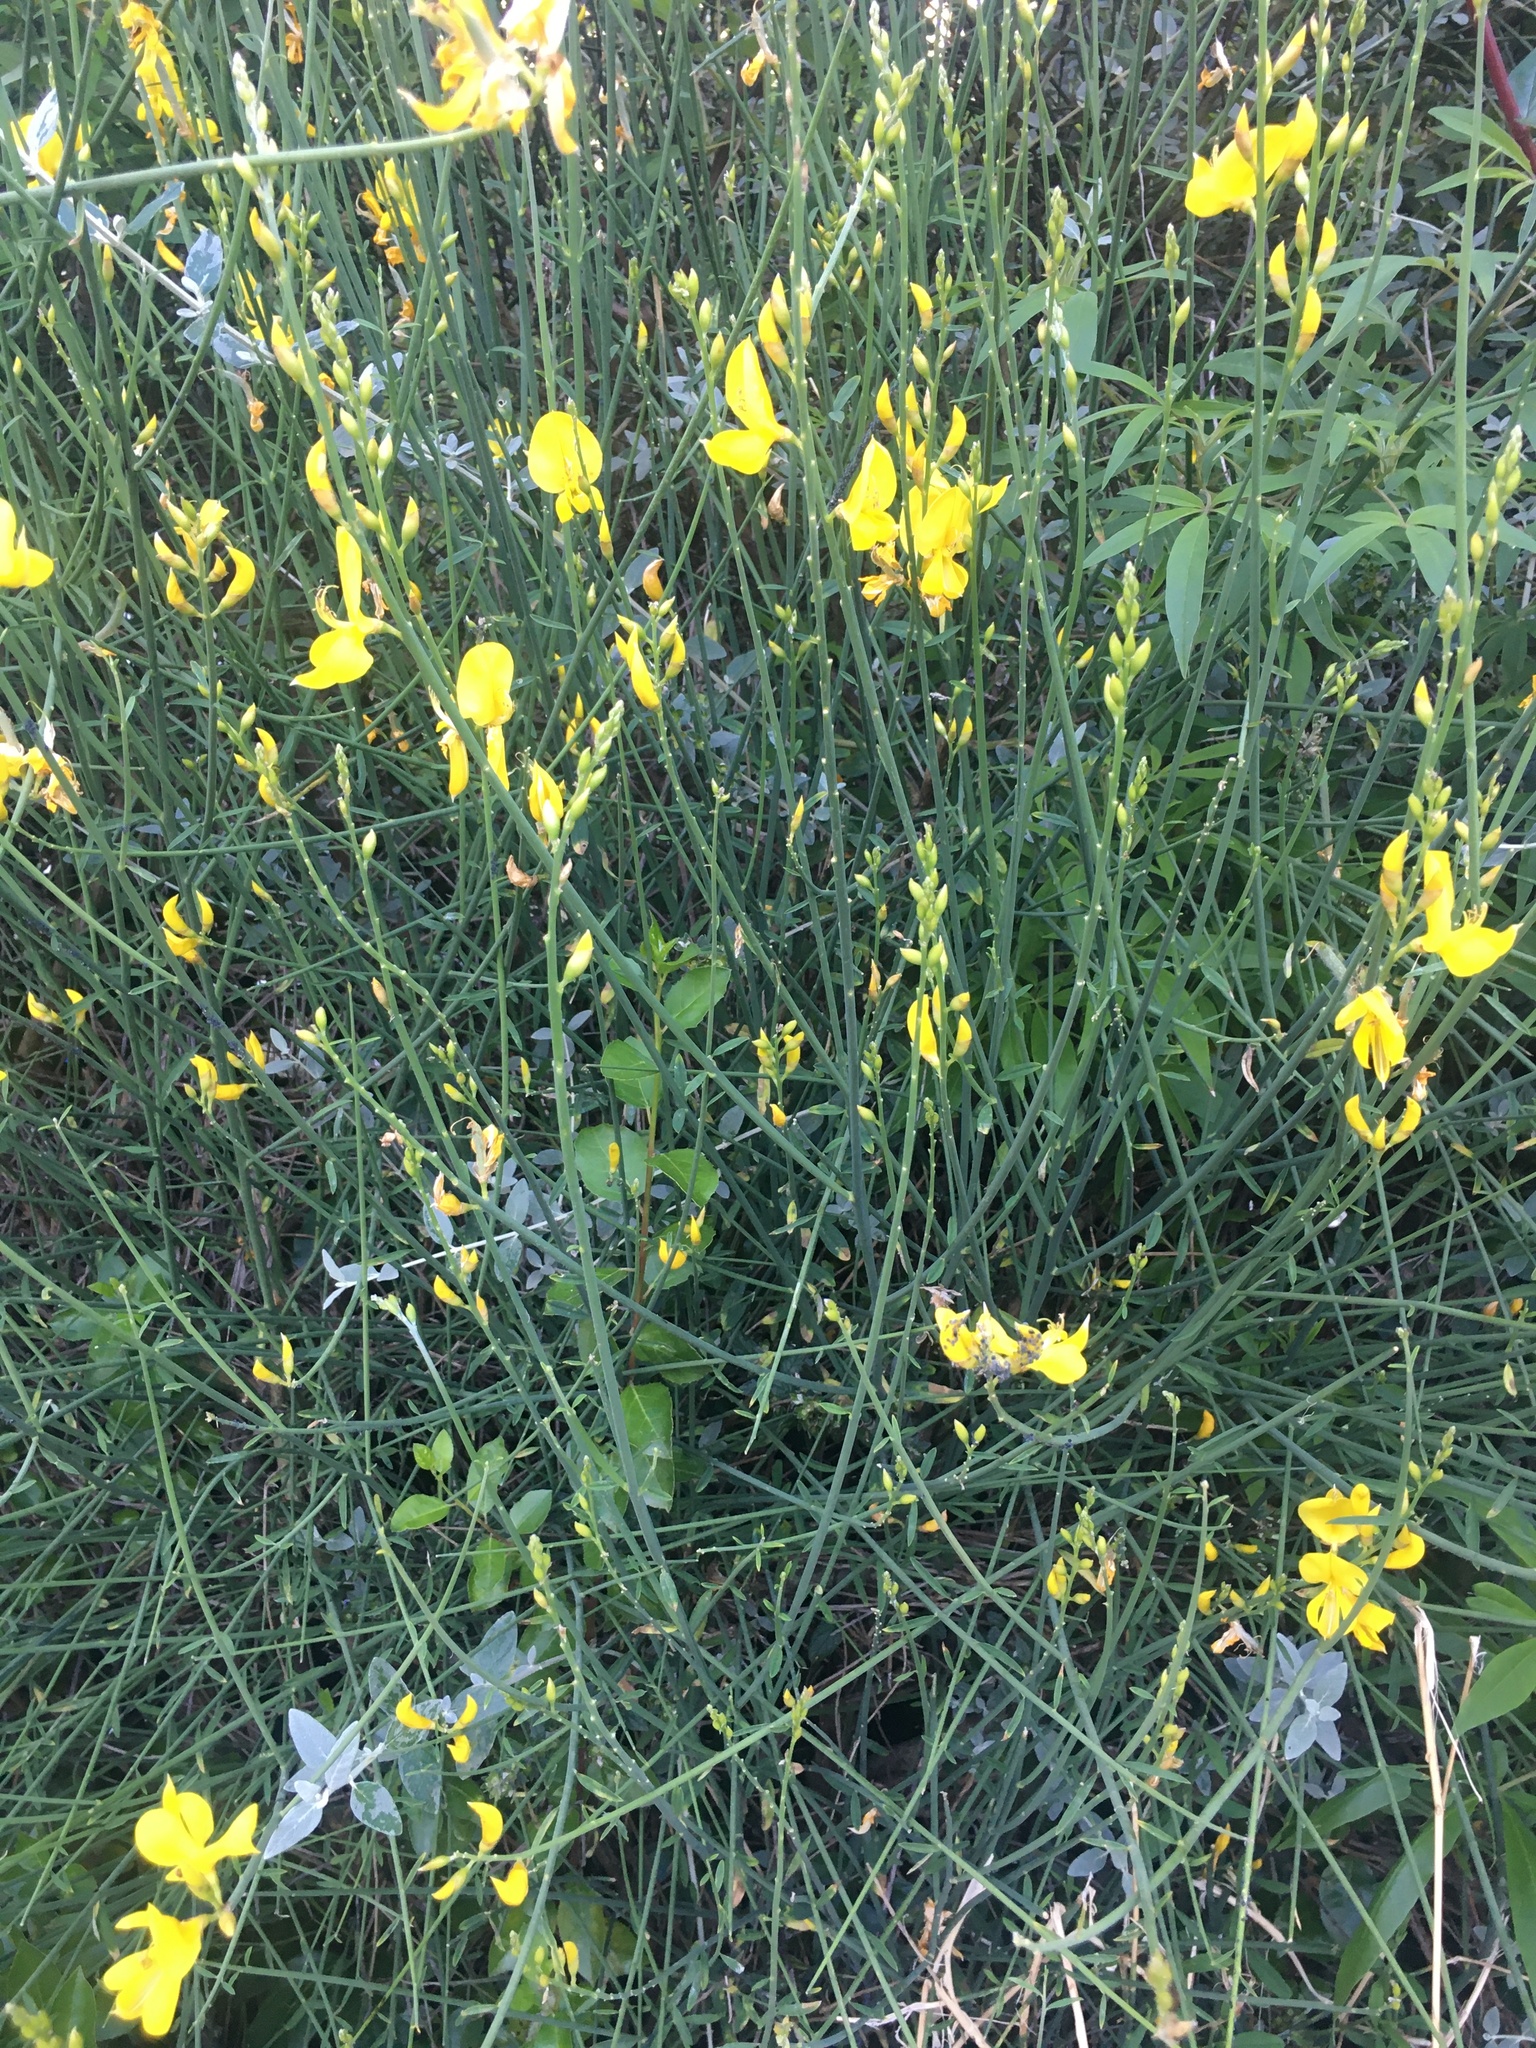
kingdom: Plantae
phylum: Tracheophyta
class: Magnoliopsida
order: Fabales
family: Fabaceae
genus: Spartium
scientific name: Spartium junceum
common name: Spanish broom
